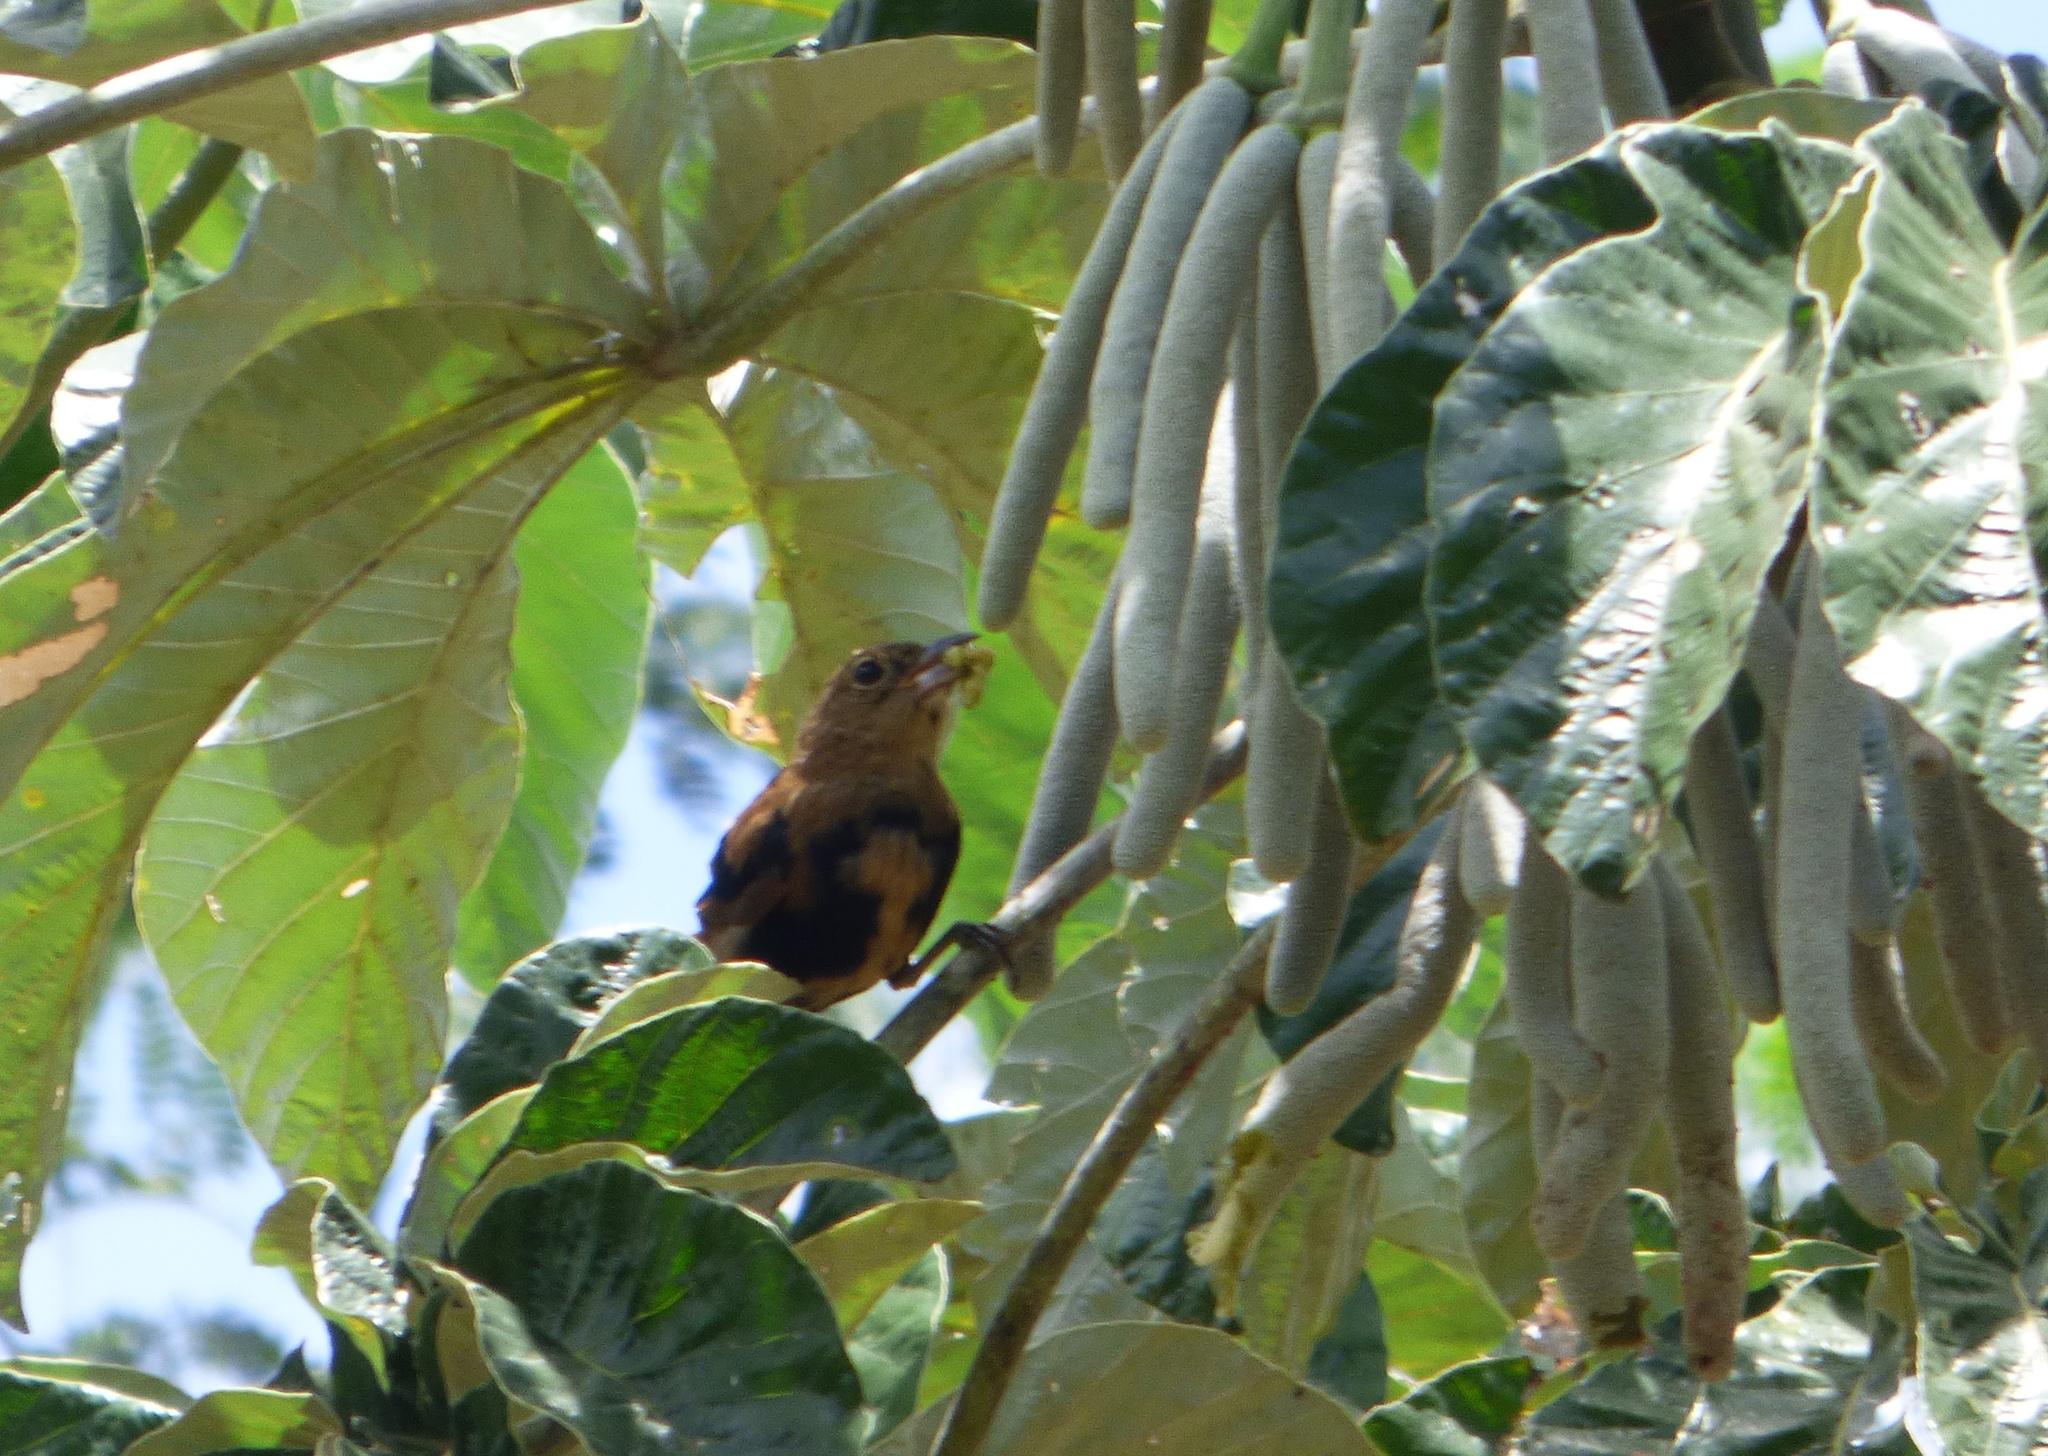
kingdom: Animalia
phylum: Chordata
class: Aves
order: Passeriformes
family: Thraupidae
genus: Tachyphonus
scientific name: Tachyphonus coronatus
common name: Ruby-crowned tanager
